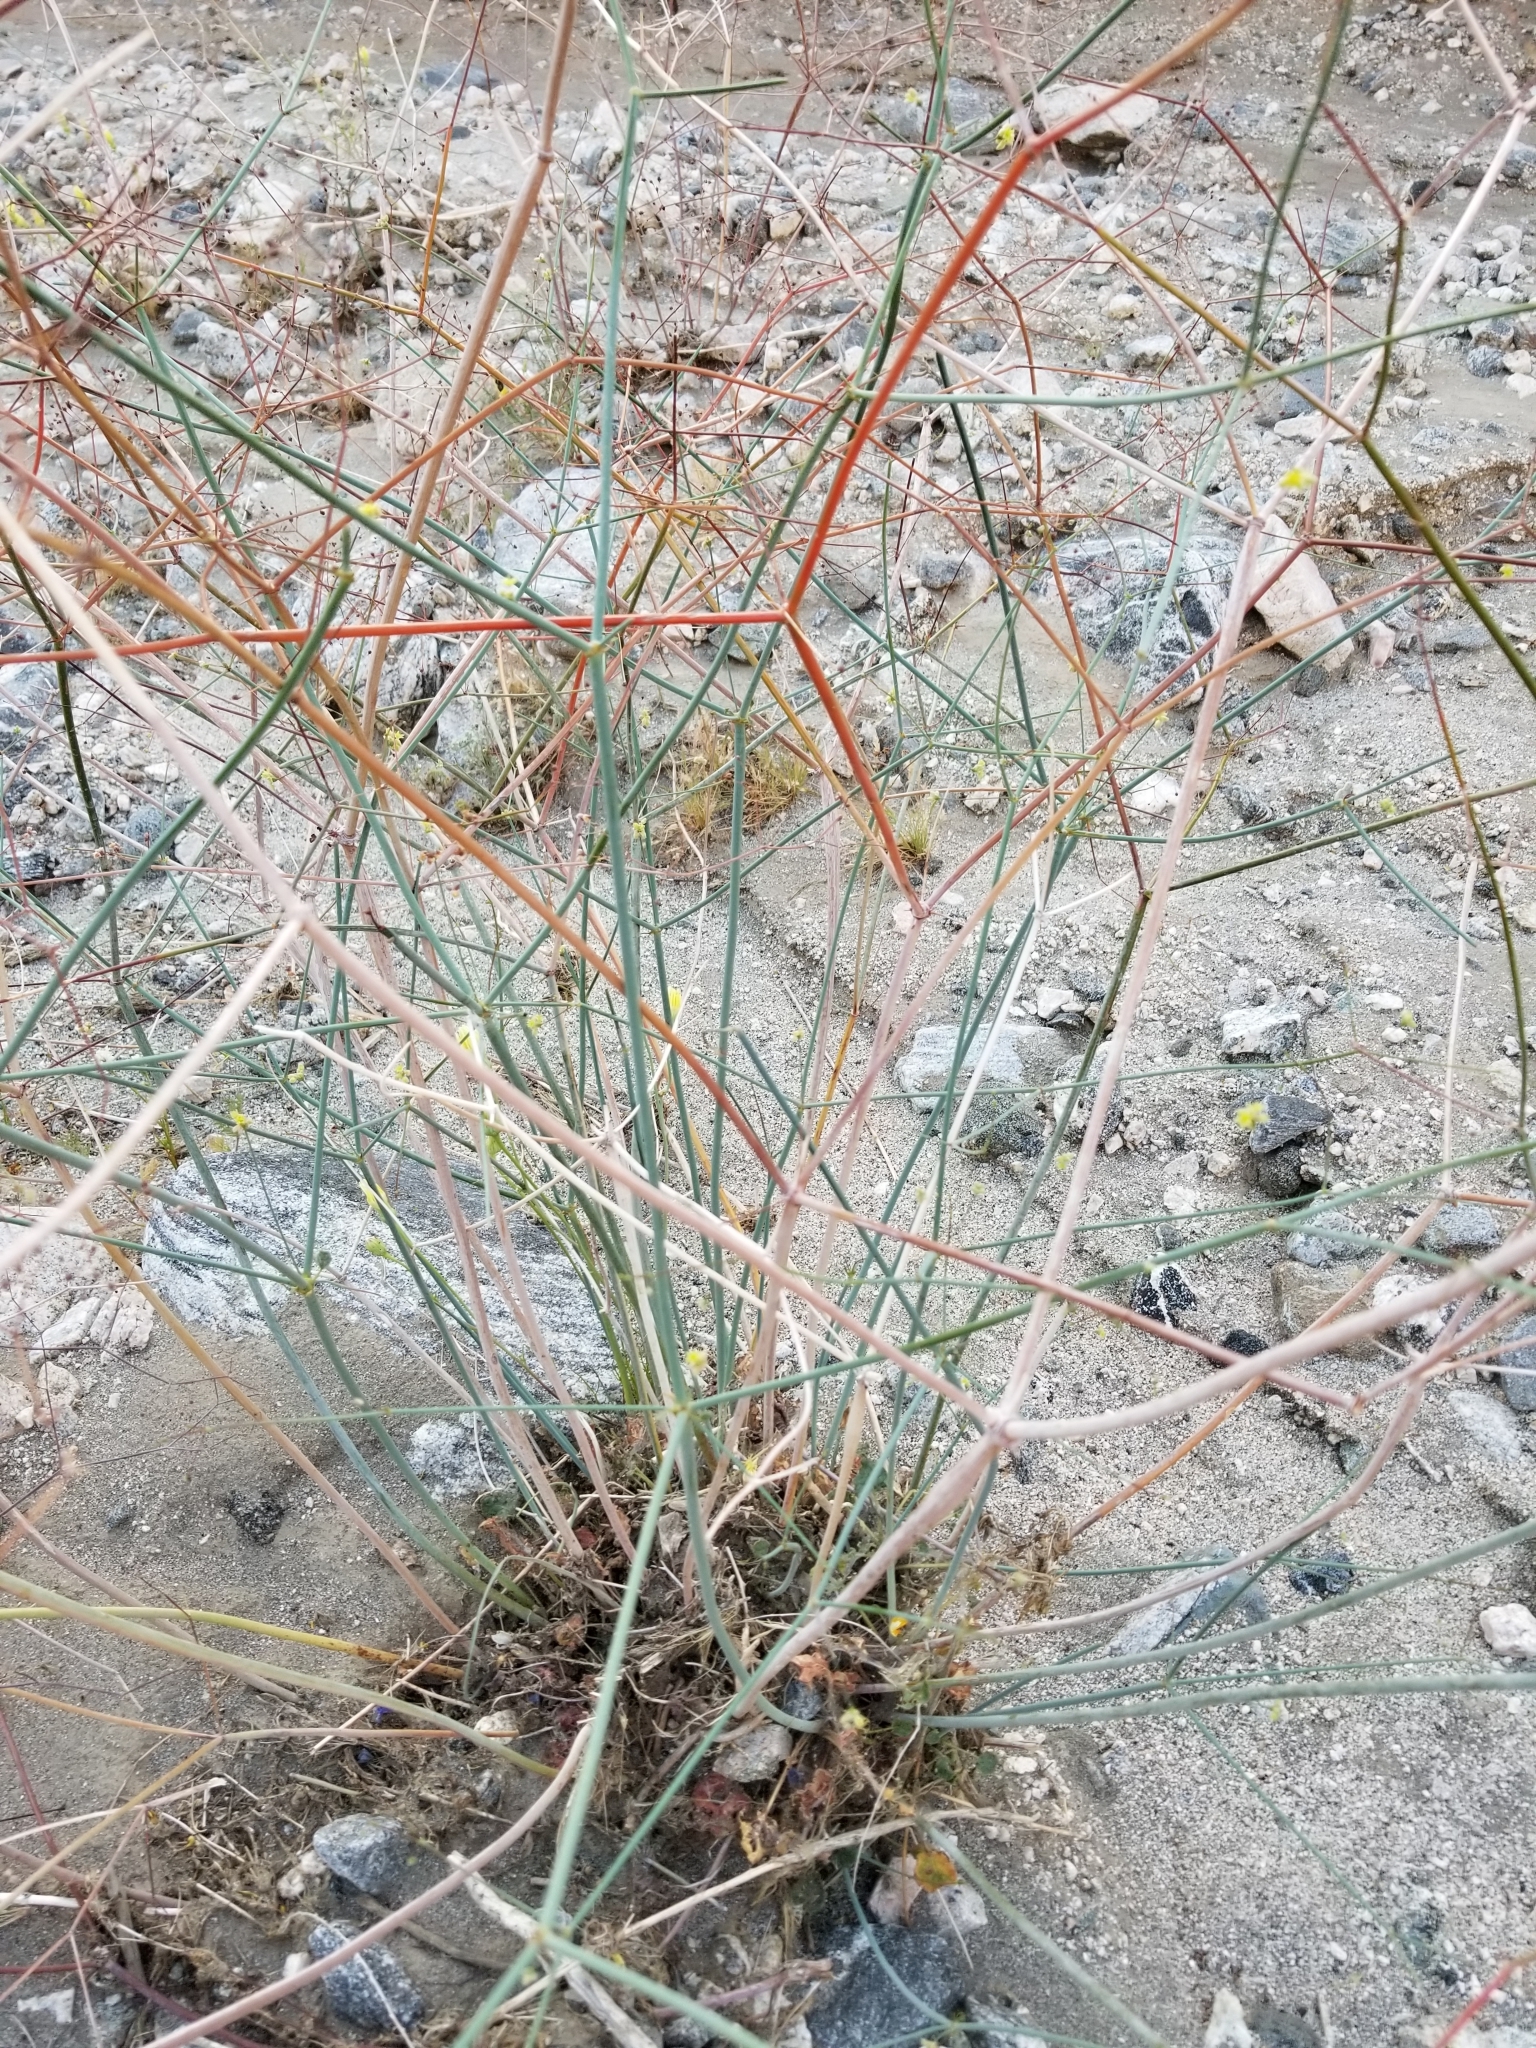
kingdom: Plantae
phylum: Tracheophyta
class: Magnoliopsida
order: Caryophyllales
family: Polygonaceae
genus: Eriogonum
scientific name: Eriogonum inflatum
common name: Desert trumpet
